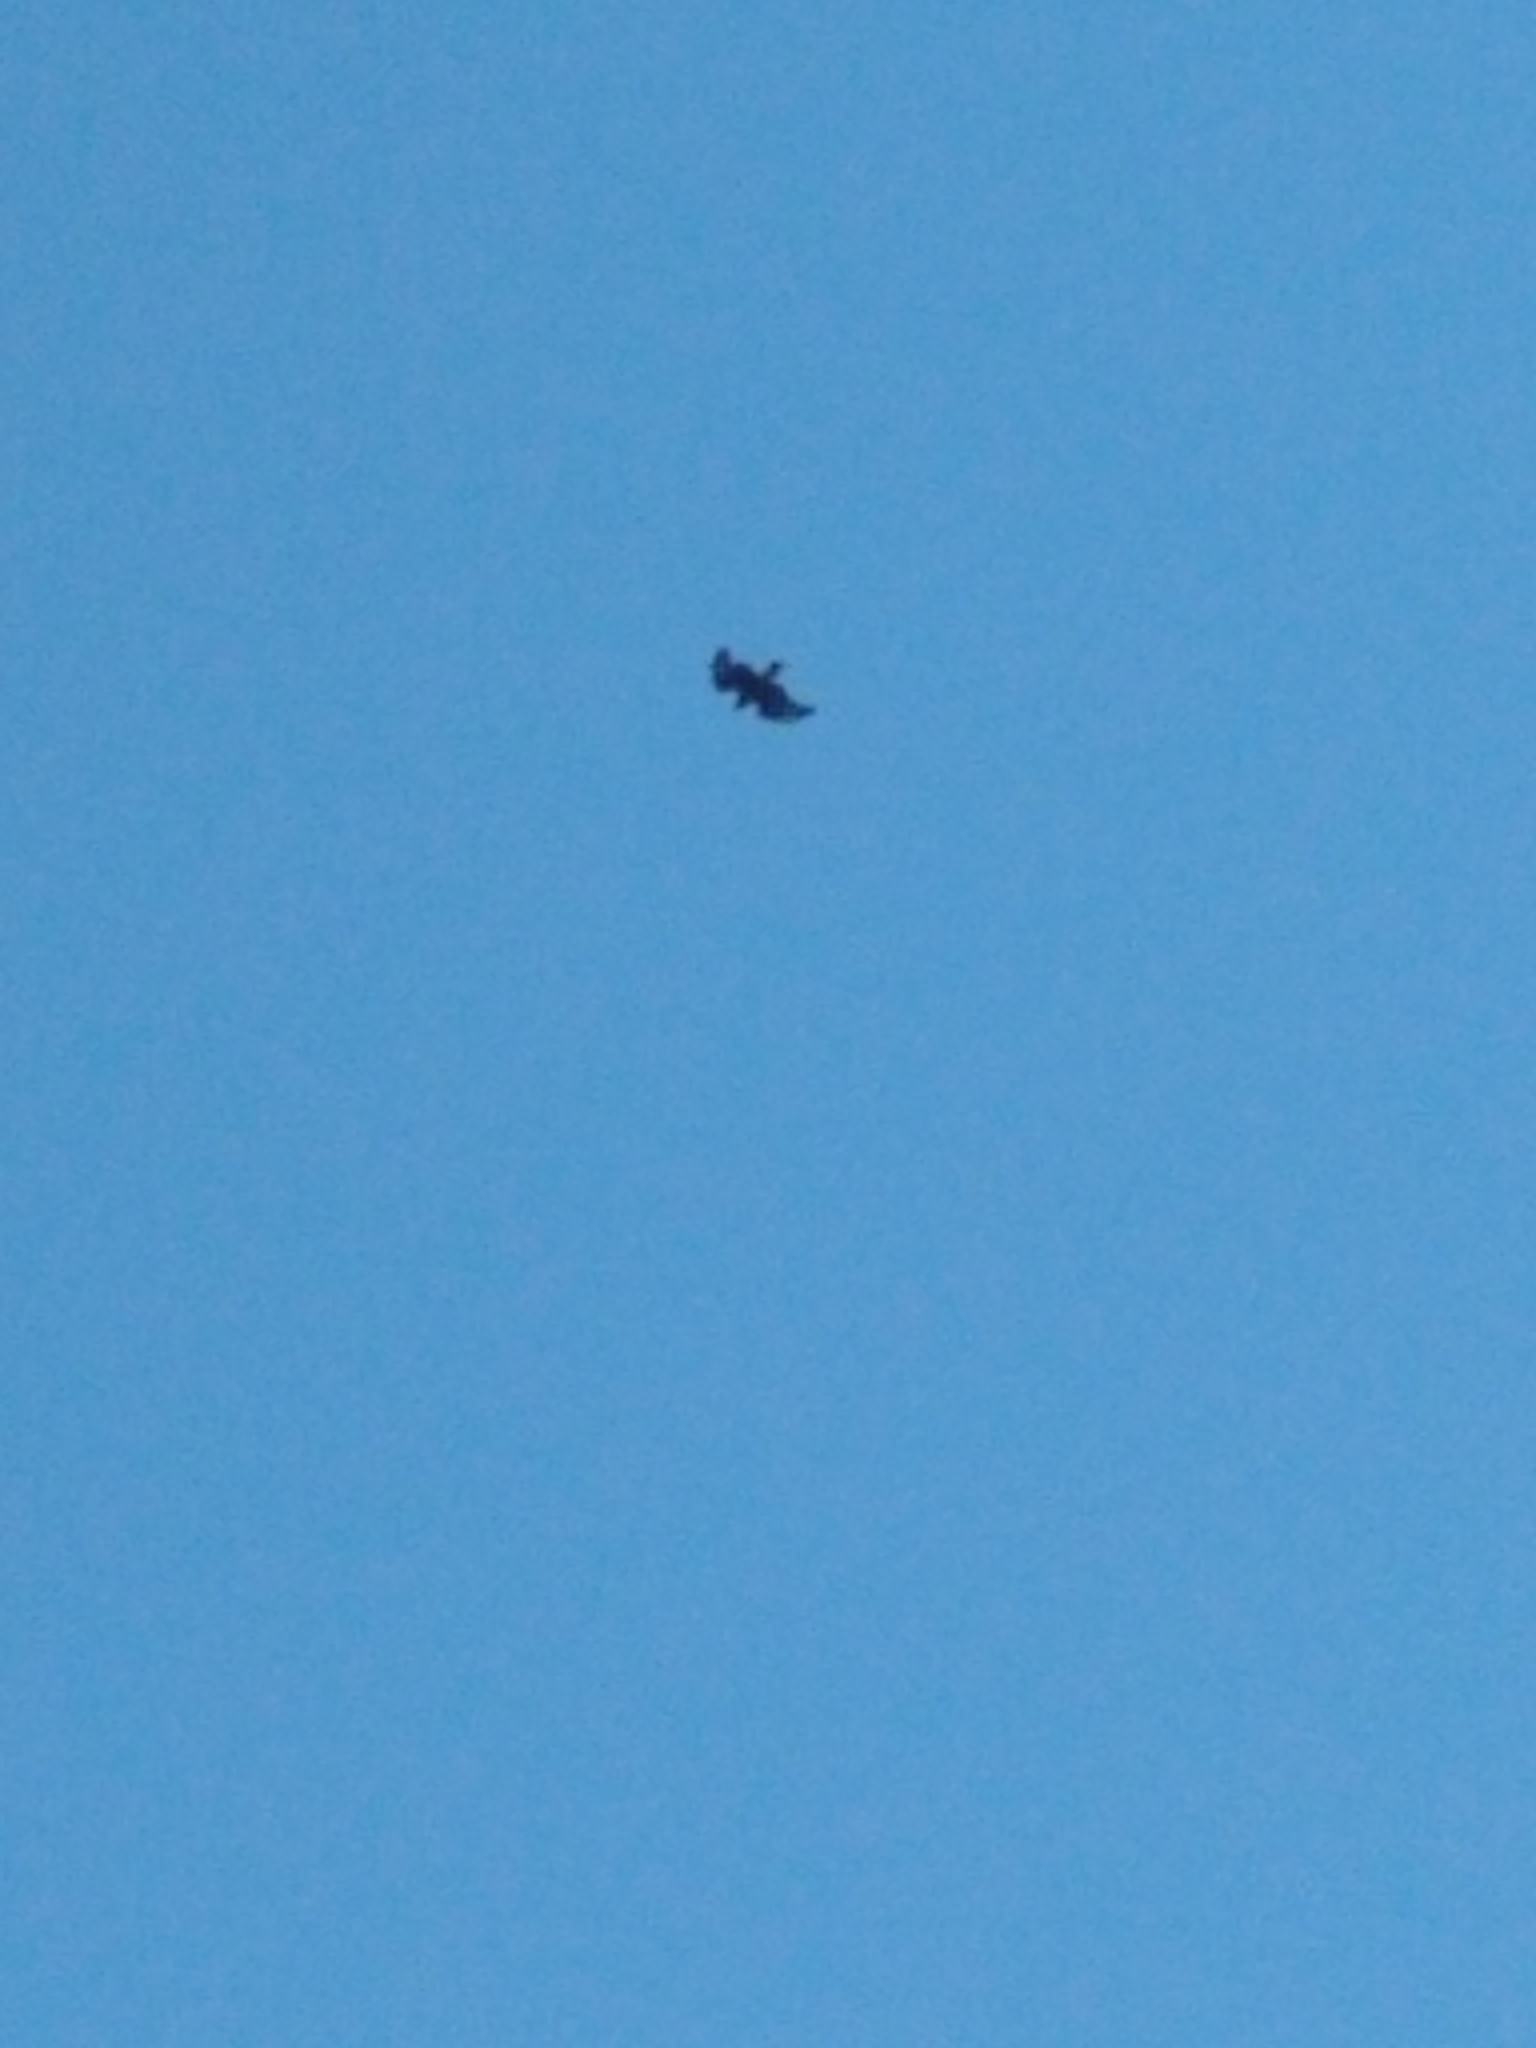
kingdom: Animalia
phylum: Chordata
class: Aves
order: Accipitriformes
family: Accipitridae
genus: Buteo
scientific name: Buteo buteo
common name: Common buzzard
